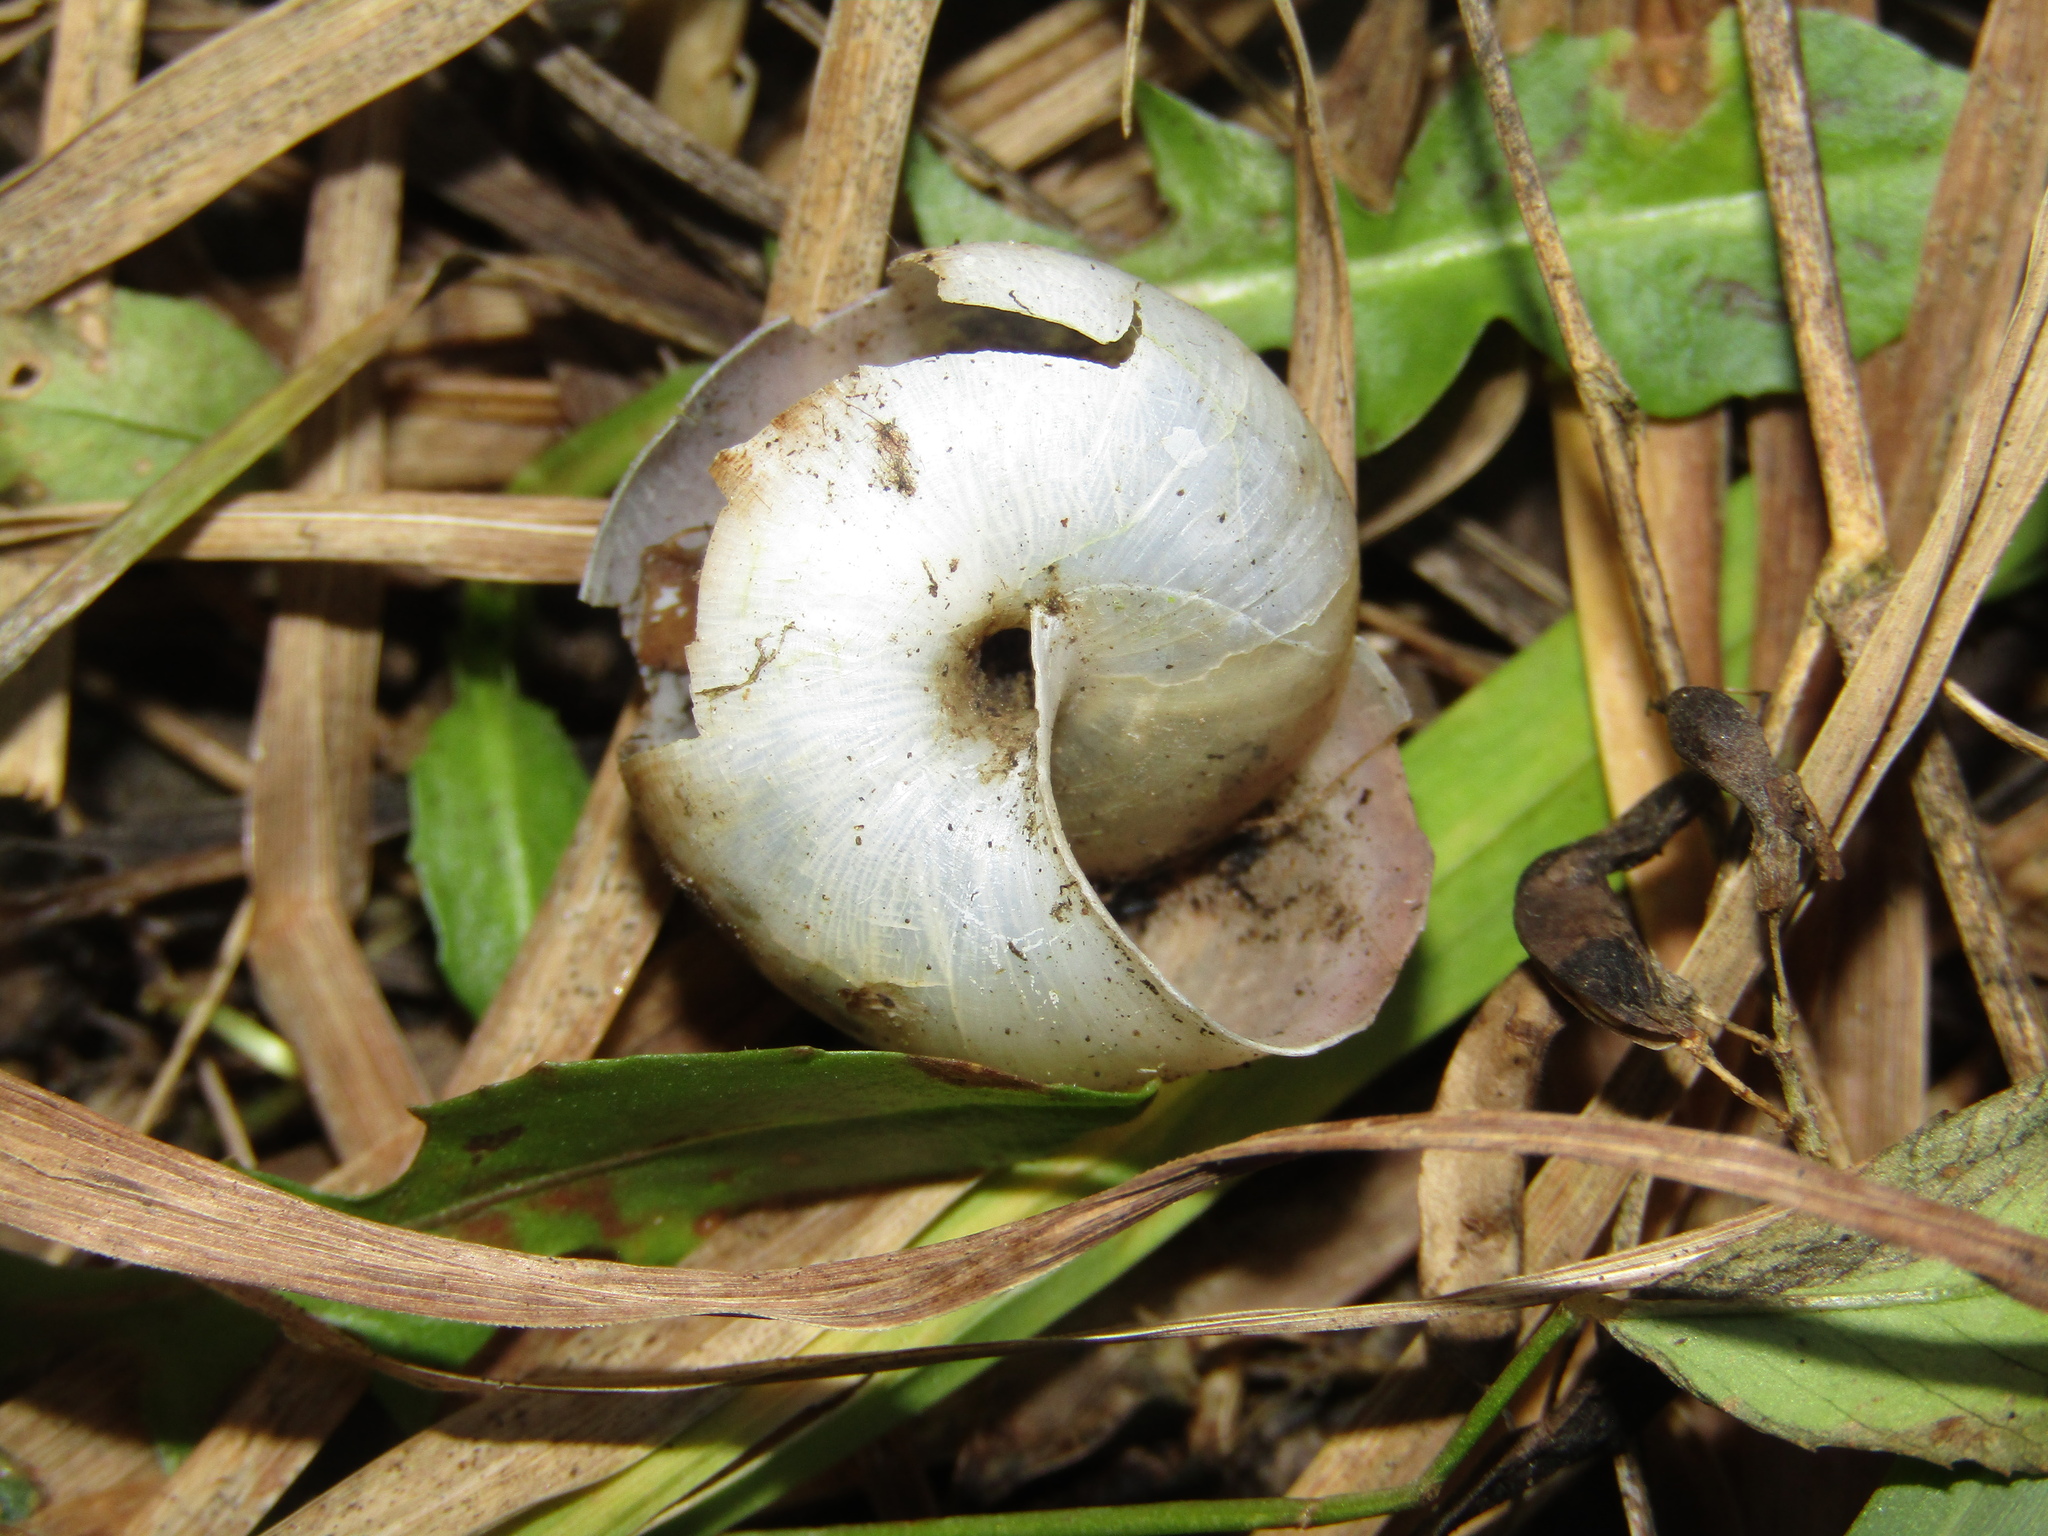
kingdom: Animalia
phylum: Mollusca
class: Gastropoda
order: Stylommatophora
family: Camaenidae
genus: Fruticicola
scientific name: Fruticicola fruticum
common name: Bush snail
